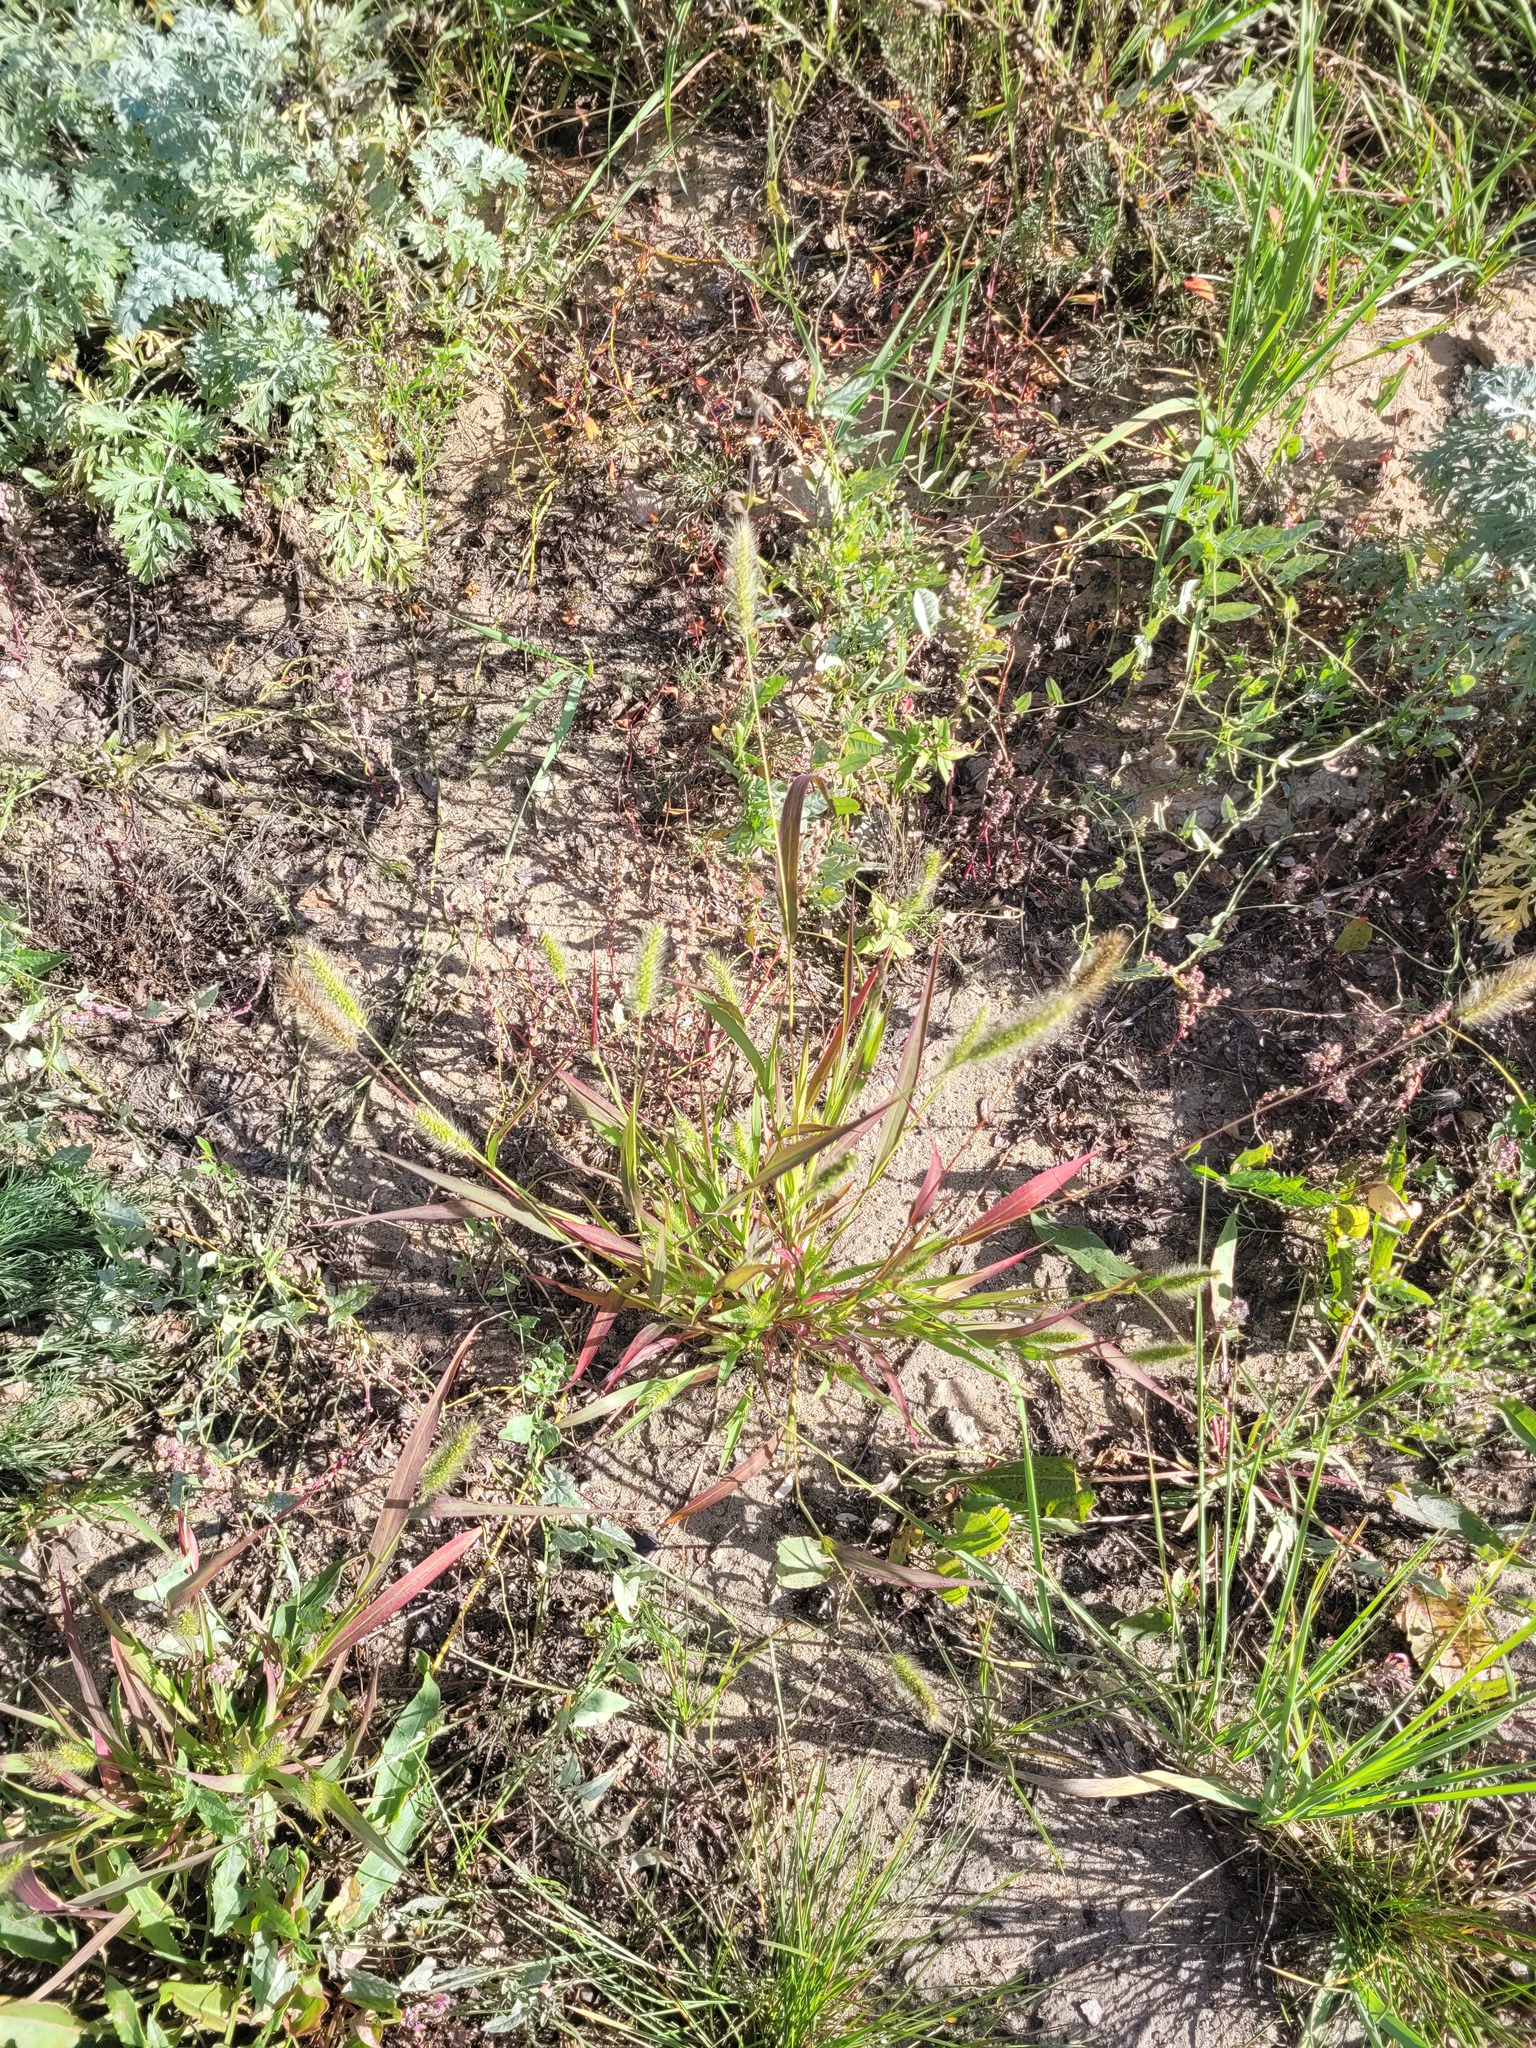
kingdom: Plantae
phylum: Tracheophyta
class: Liliopsida
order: Poales
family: Poaceae
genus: Setaria
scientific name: Setaria viridis
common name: Green bristlegrass
